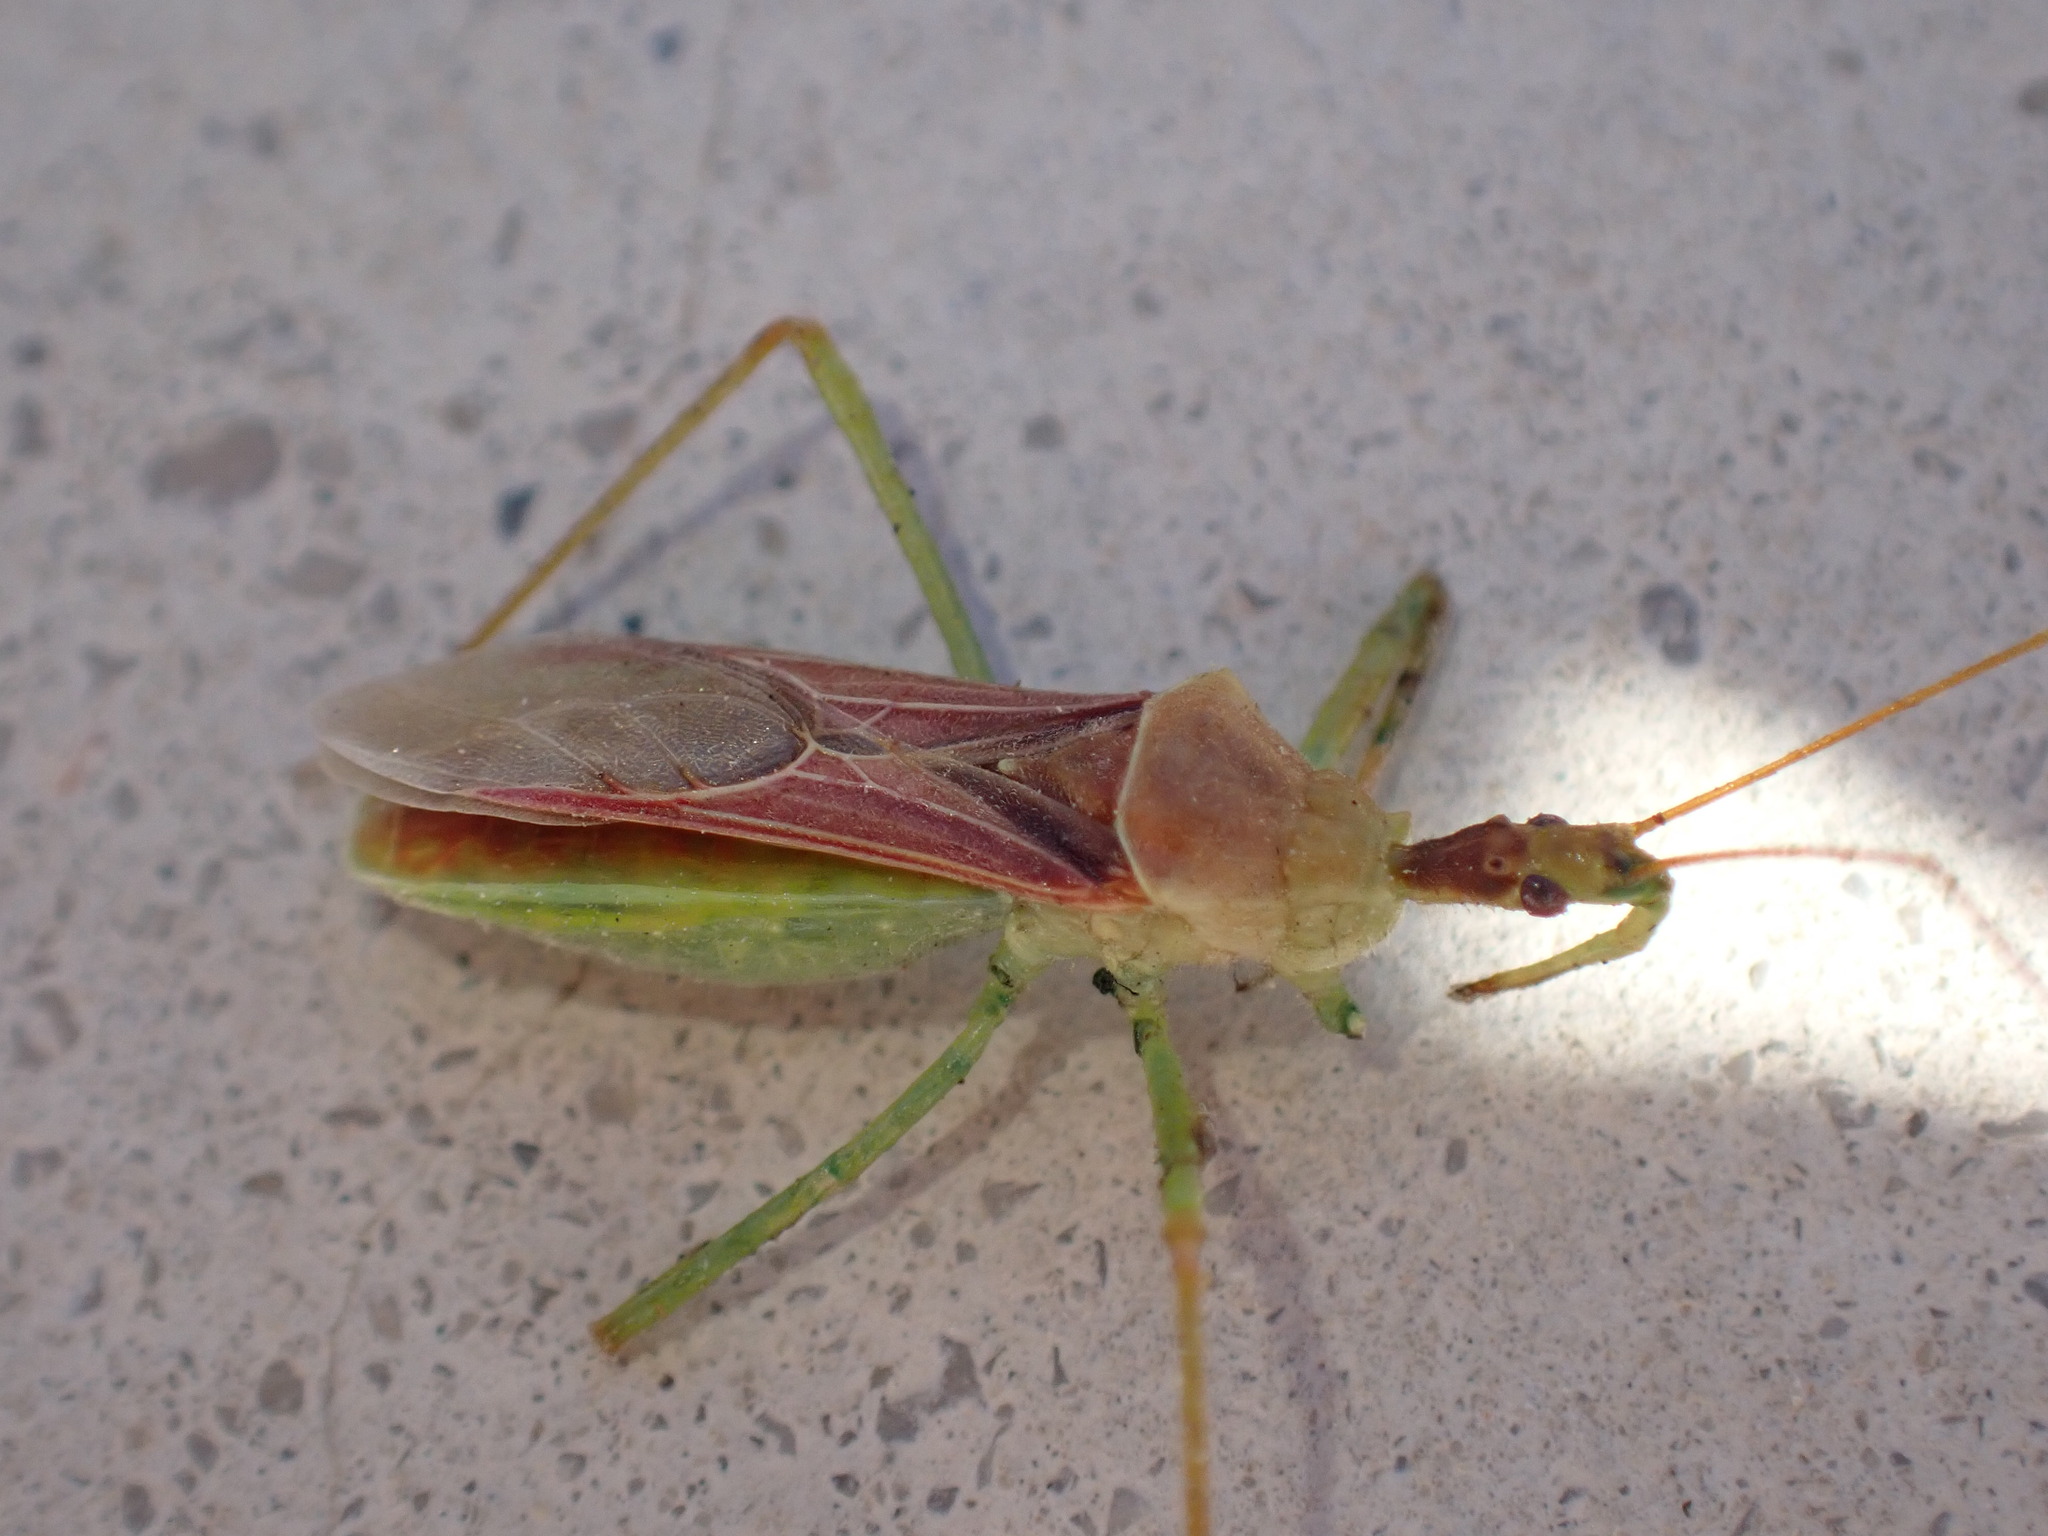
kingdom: Animalia
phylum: Arthropoda
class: Insecta
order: Hemiptera
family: Reduviidae
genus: Zelus
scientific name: Zelus renardii
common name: Assassin bug
